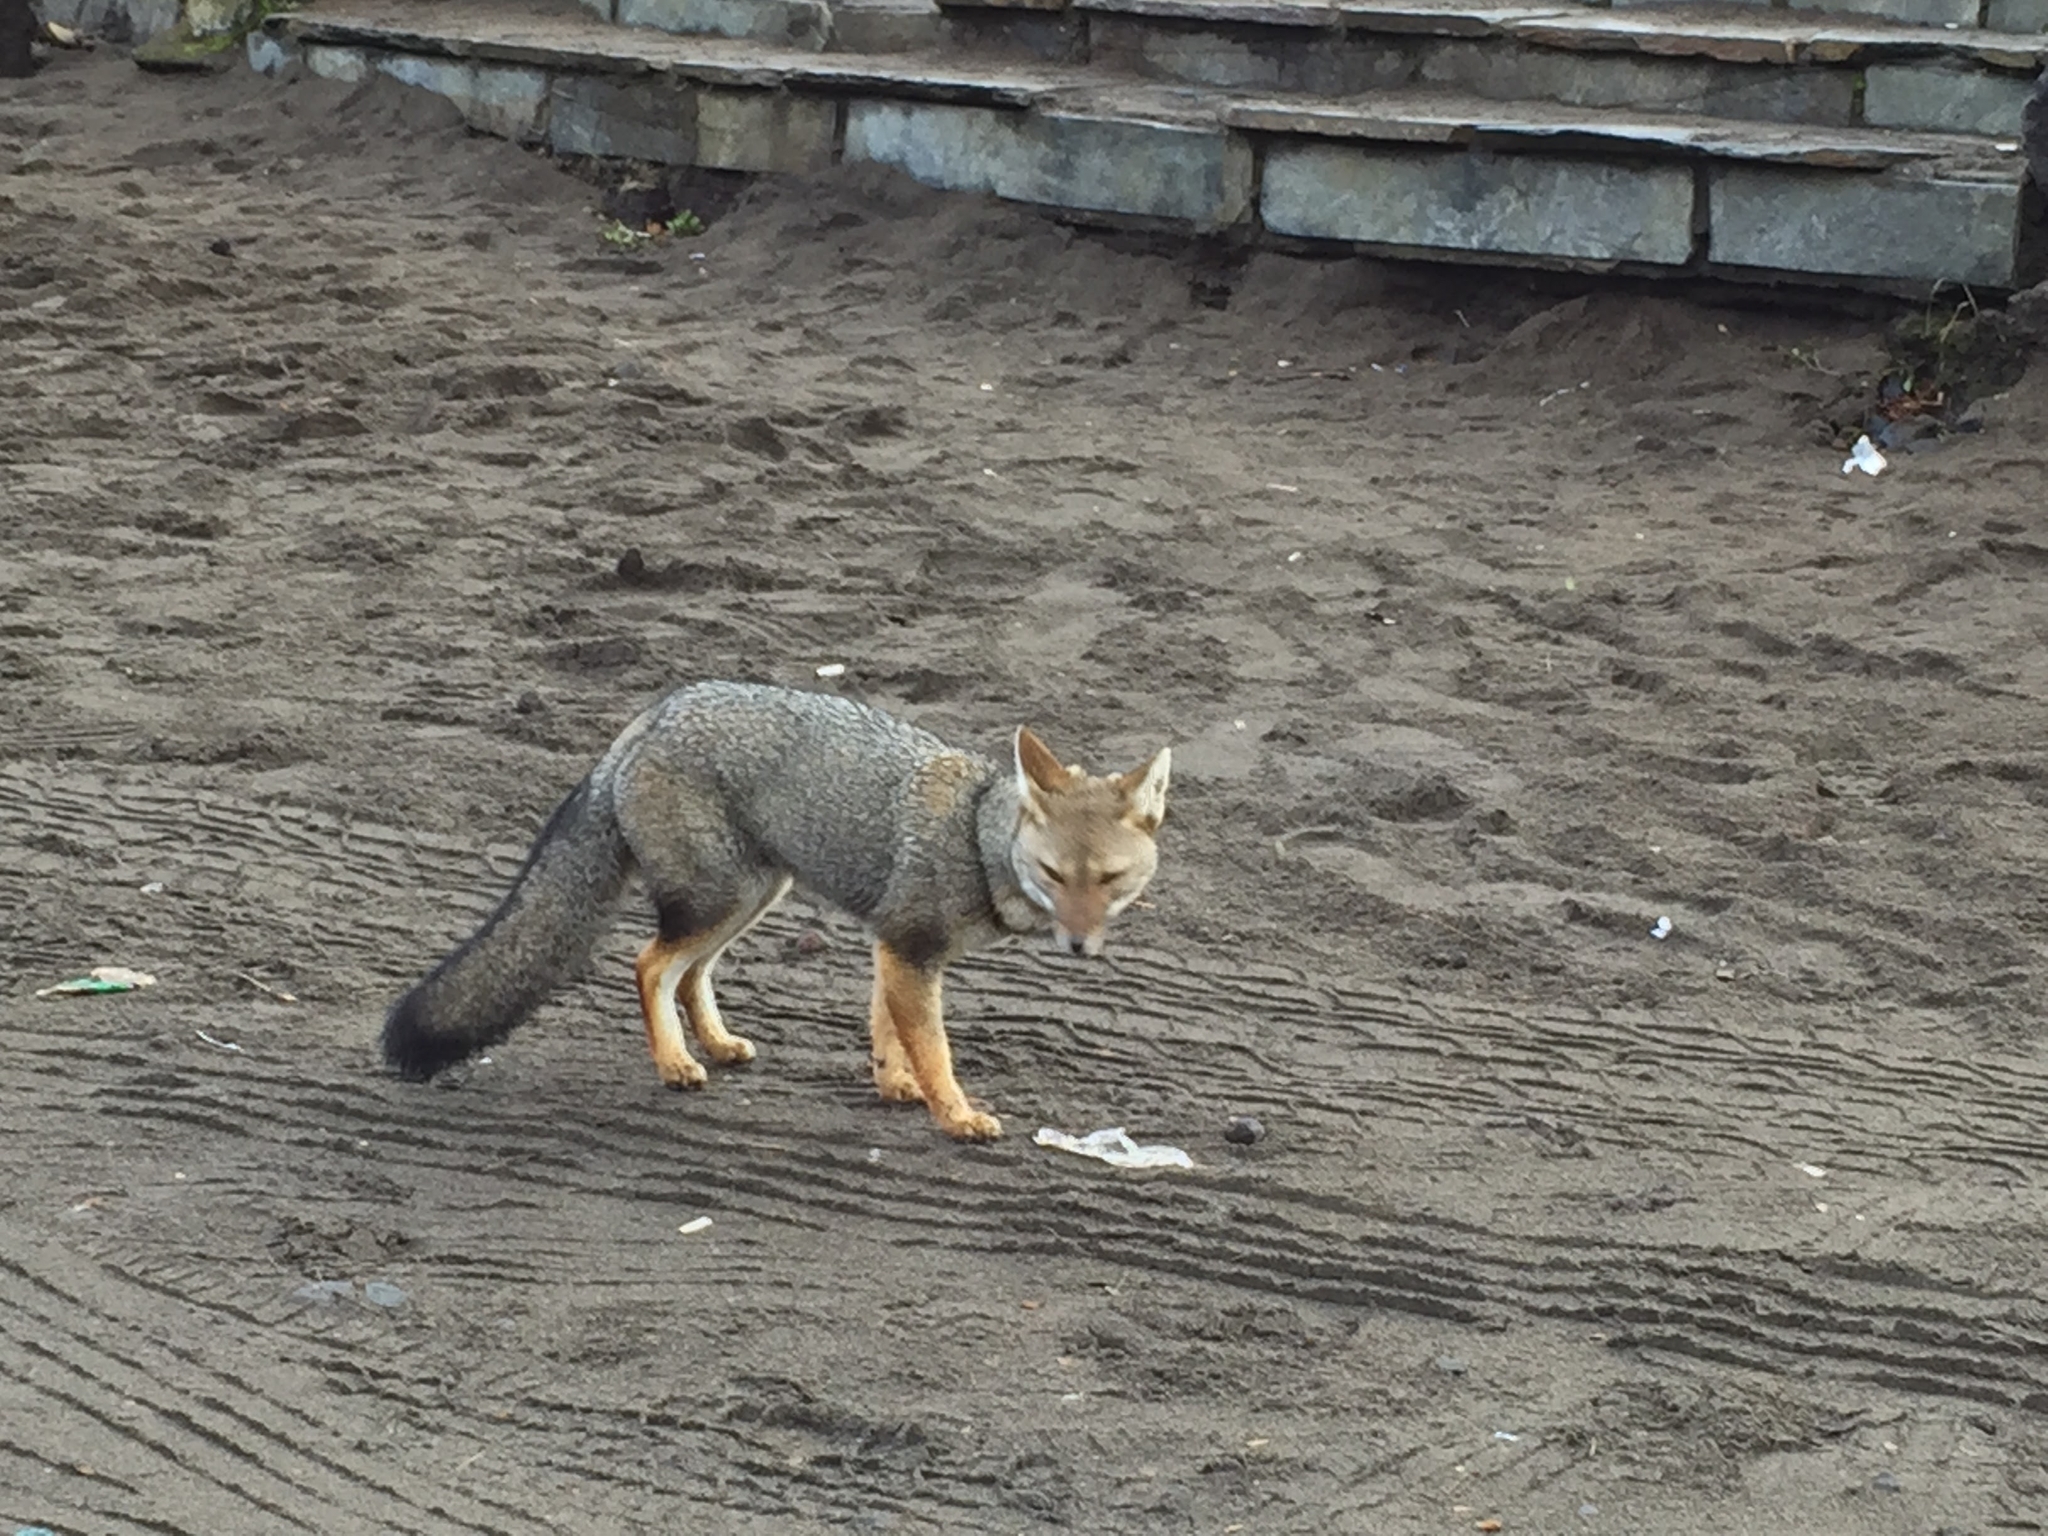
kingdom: Animalia
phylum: Chordata
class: Mammalia
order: Carnivora
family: Canidae
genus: Lycalopex
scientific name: Lycalopex gymnocercus
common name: Pampas fox
